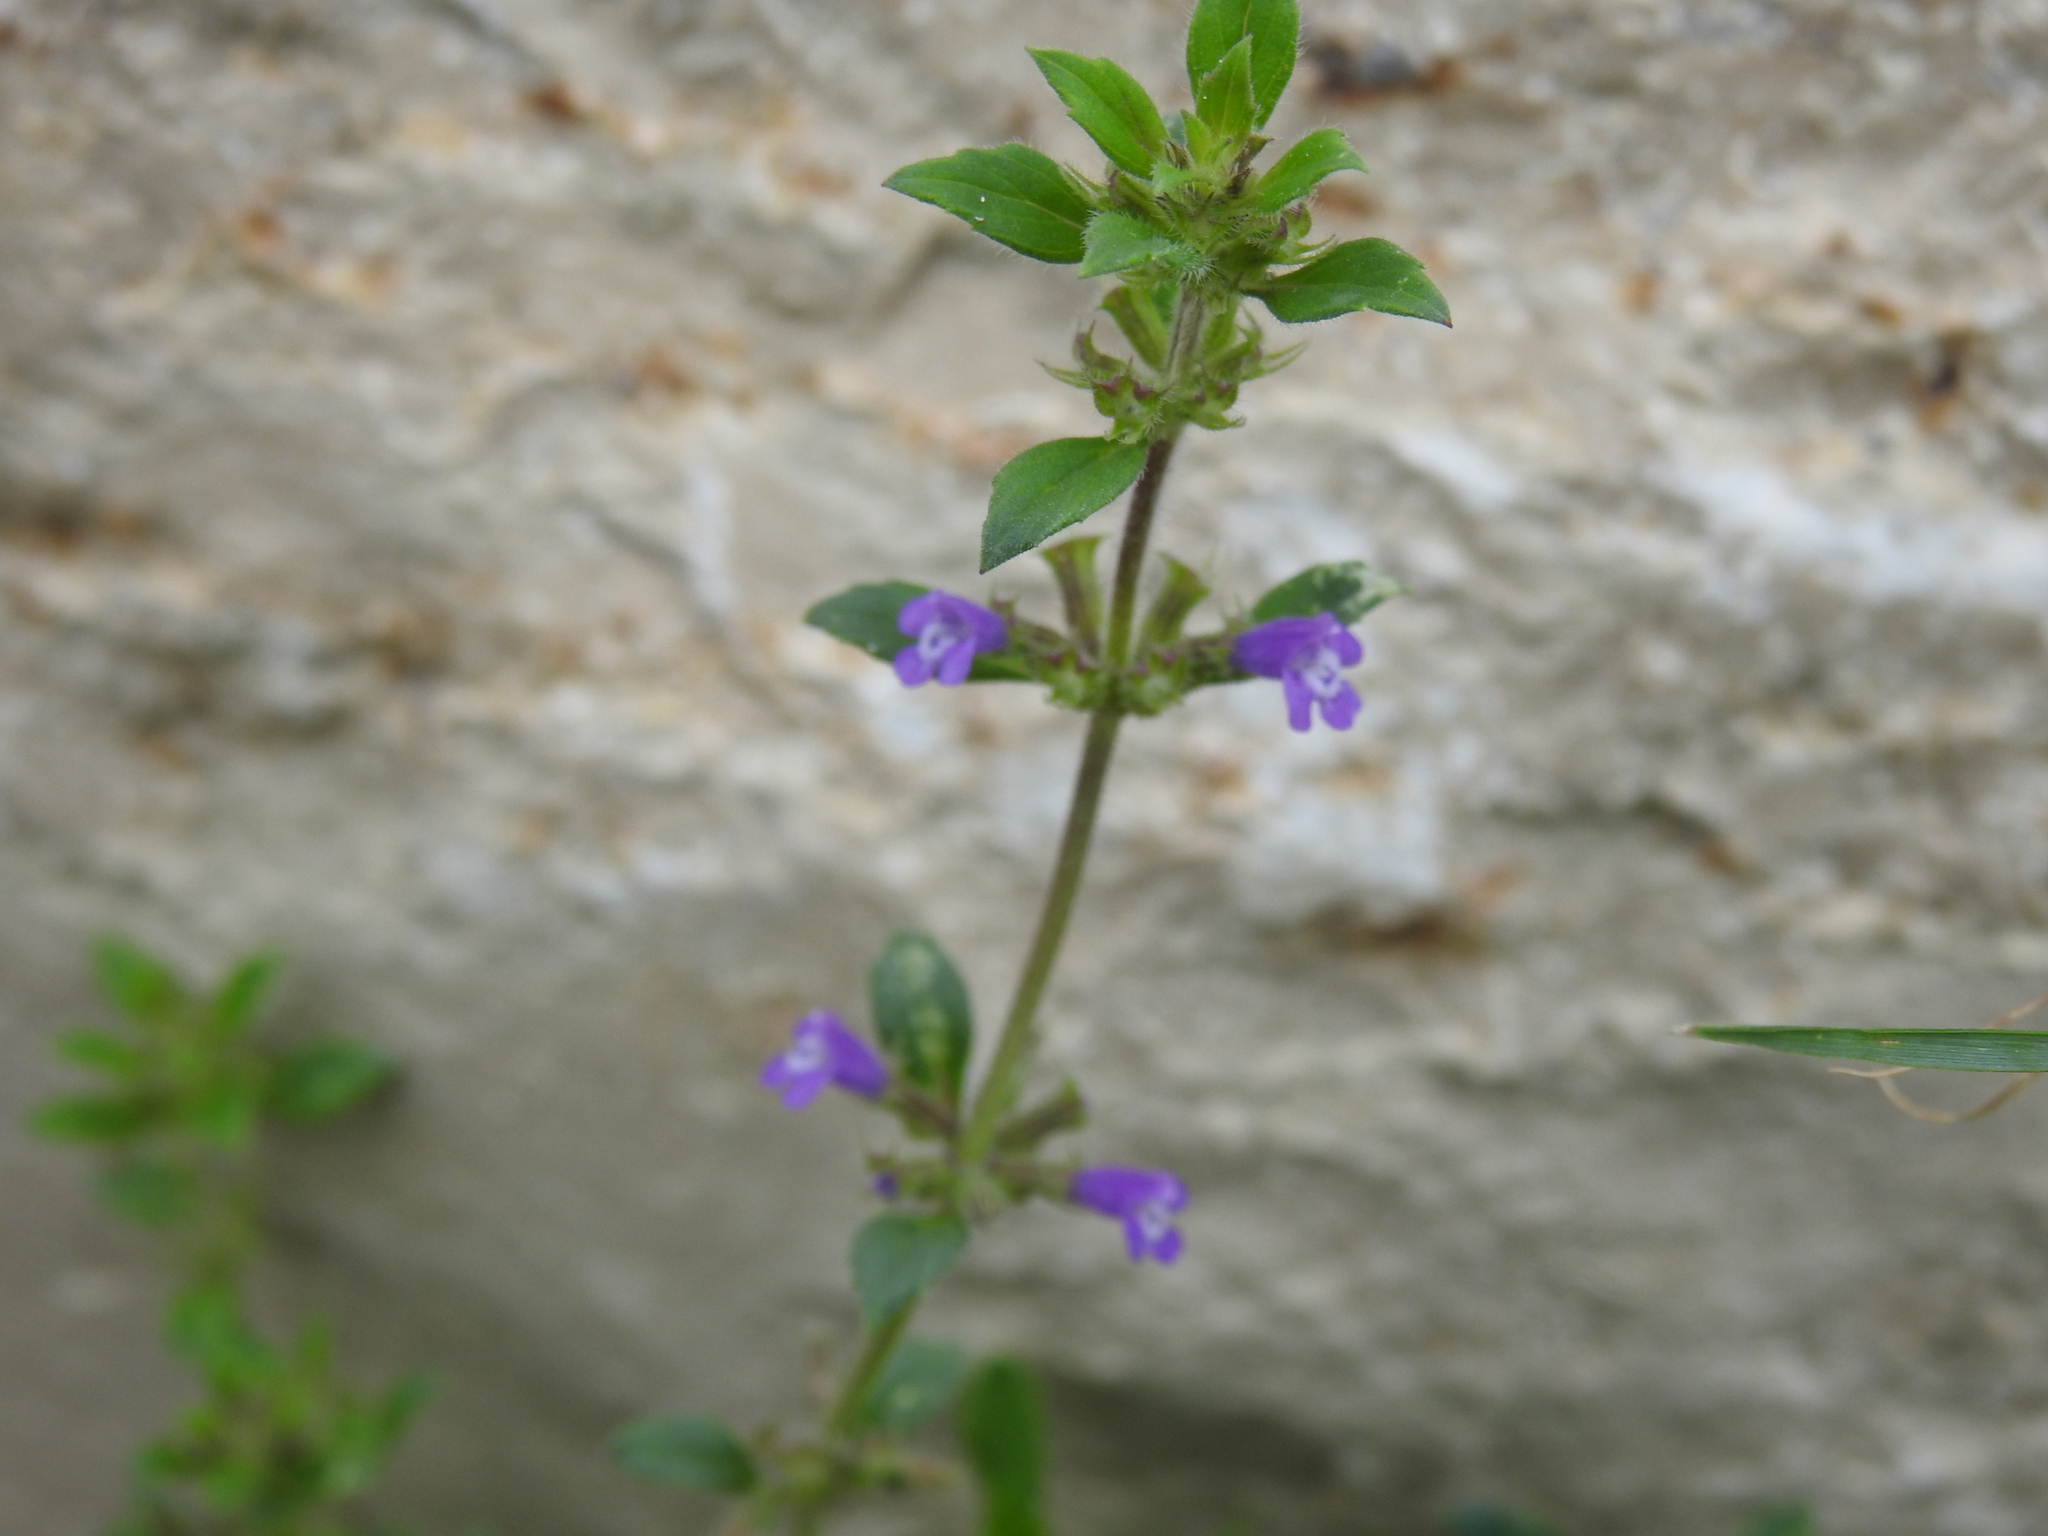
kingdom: Plantae
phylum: Tracheophyta
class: Magnoliopsida
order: Lamiales
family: Lamiaceae
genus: Clinopodium
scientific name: Clinopodium acinos
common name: Basil thyme
